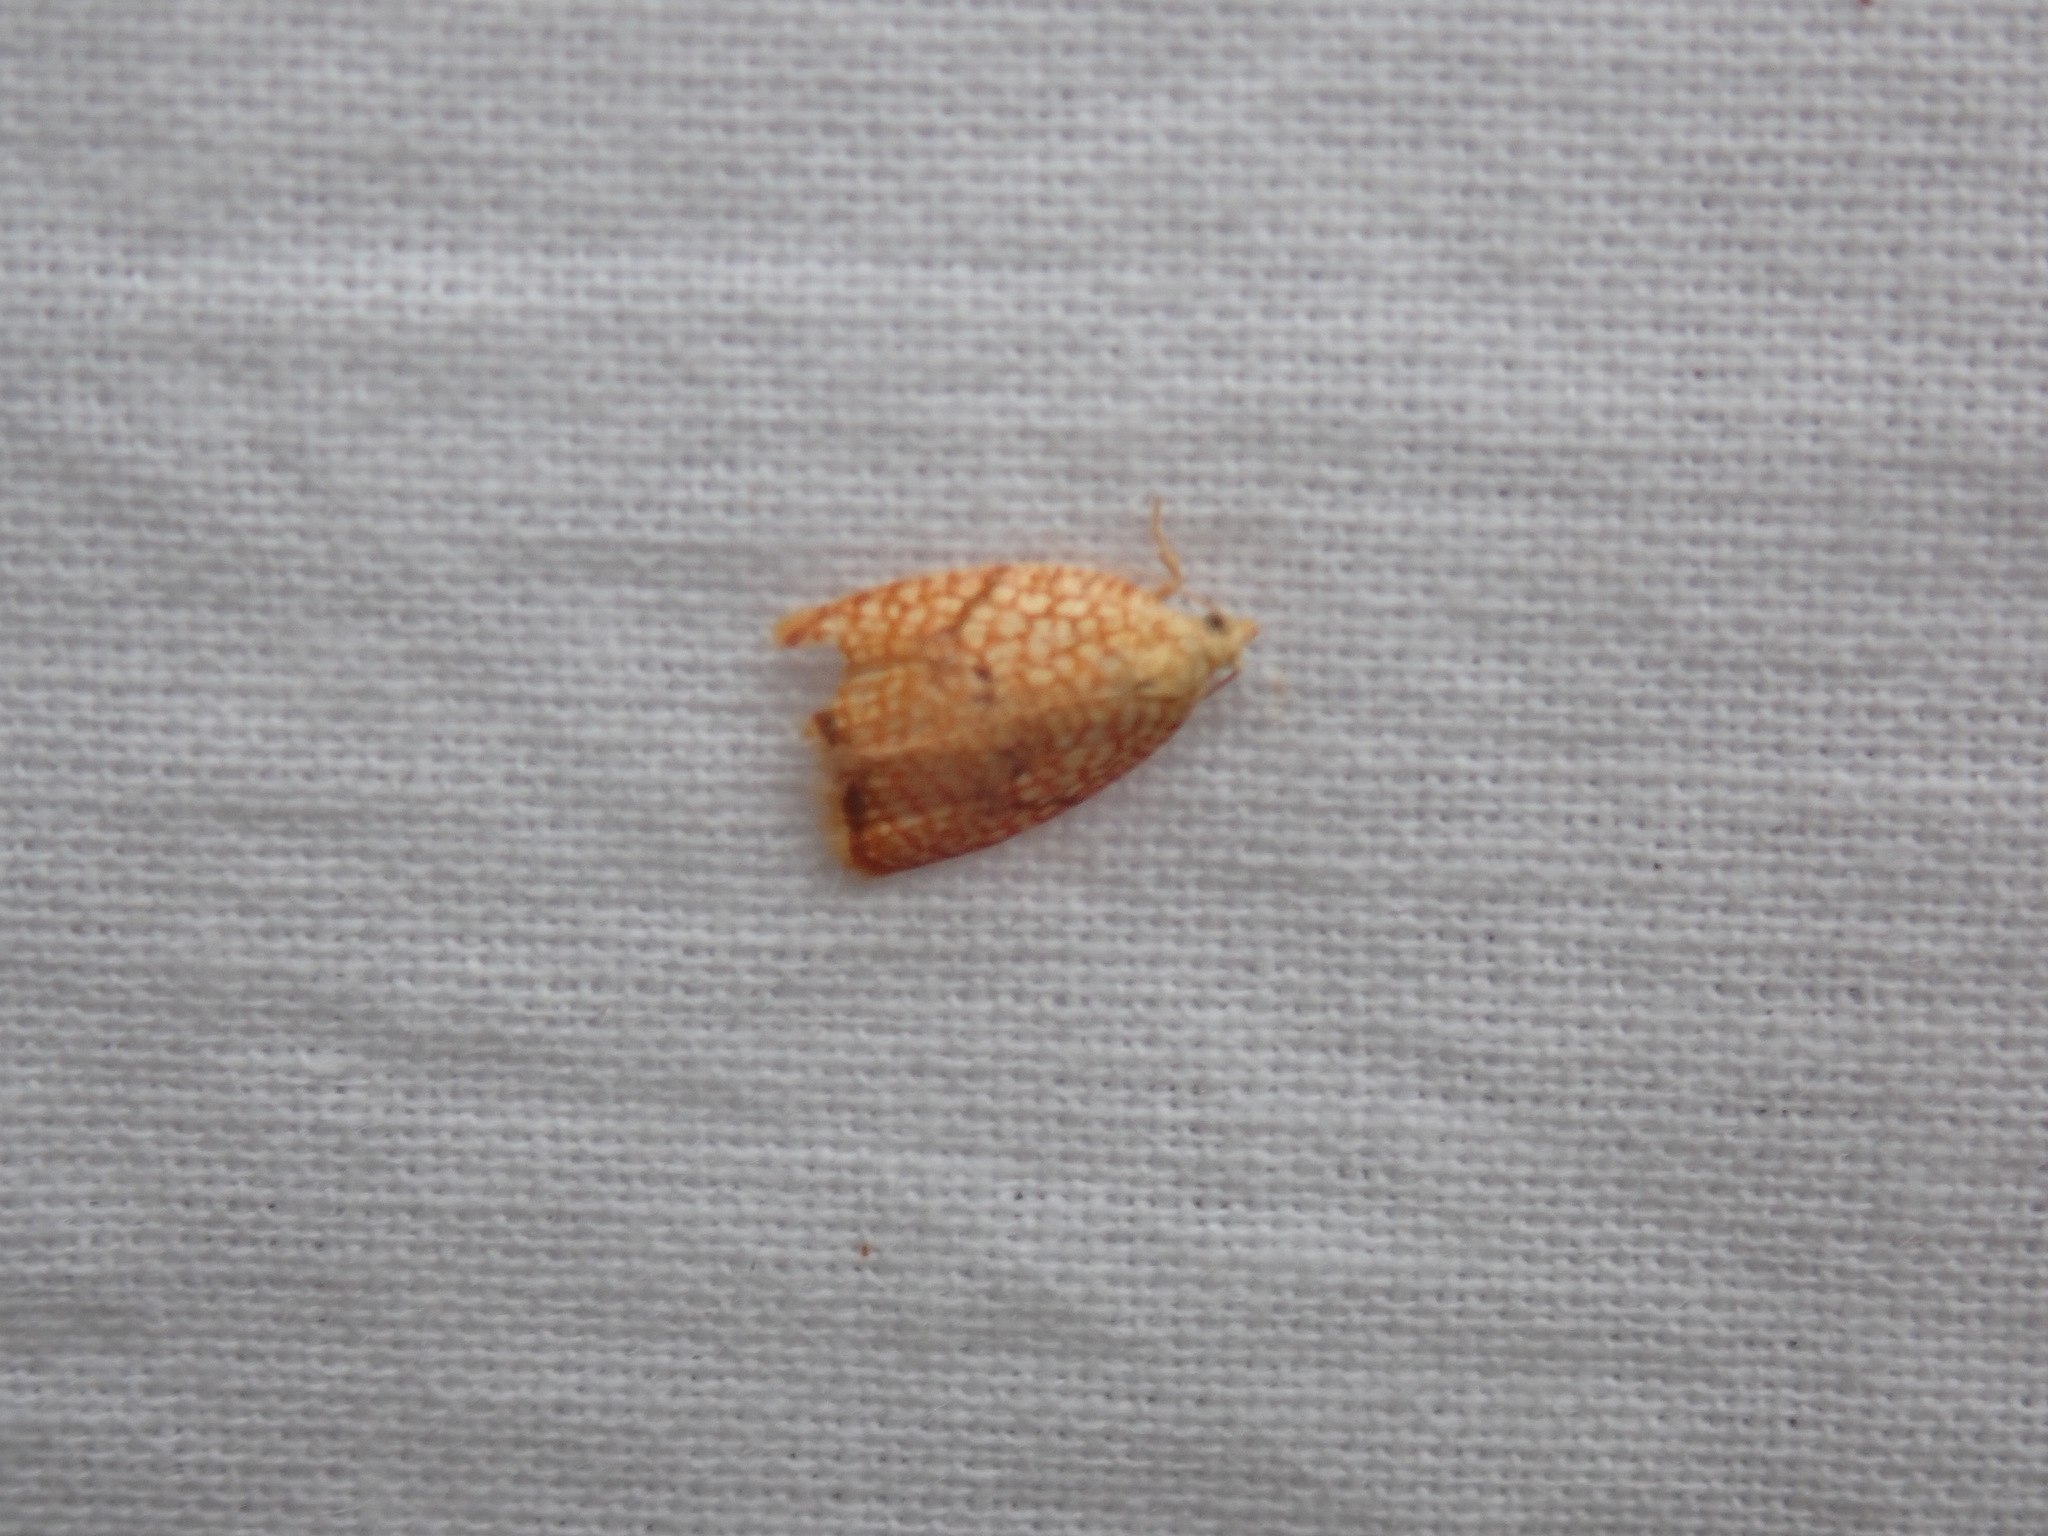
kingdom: Animalia
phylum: Arthropoda
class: Insecta
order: Lepidoptera
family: Tortricidae
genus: Acleris
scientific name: Acleris forsskaleana
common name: Maple button
